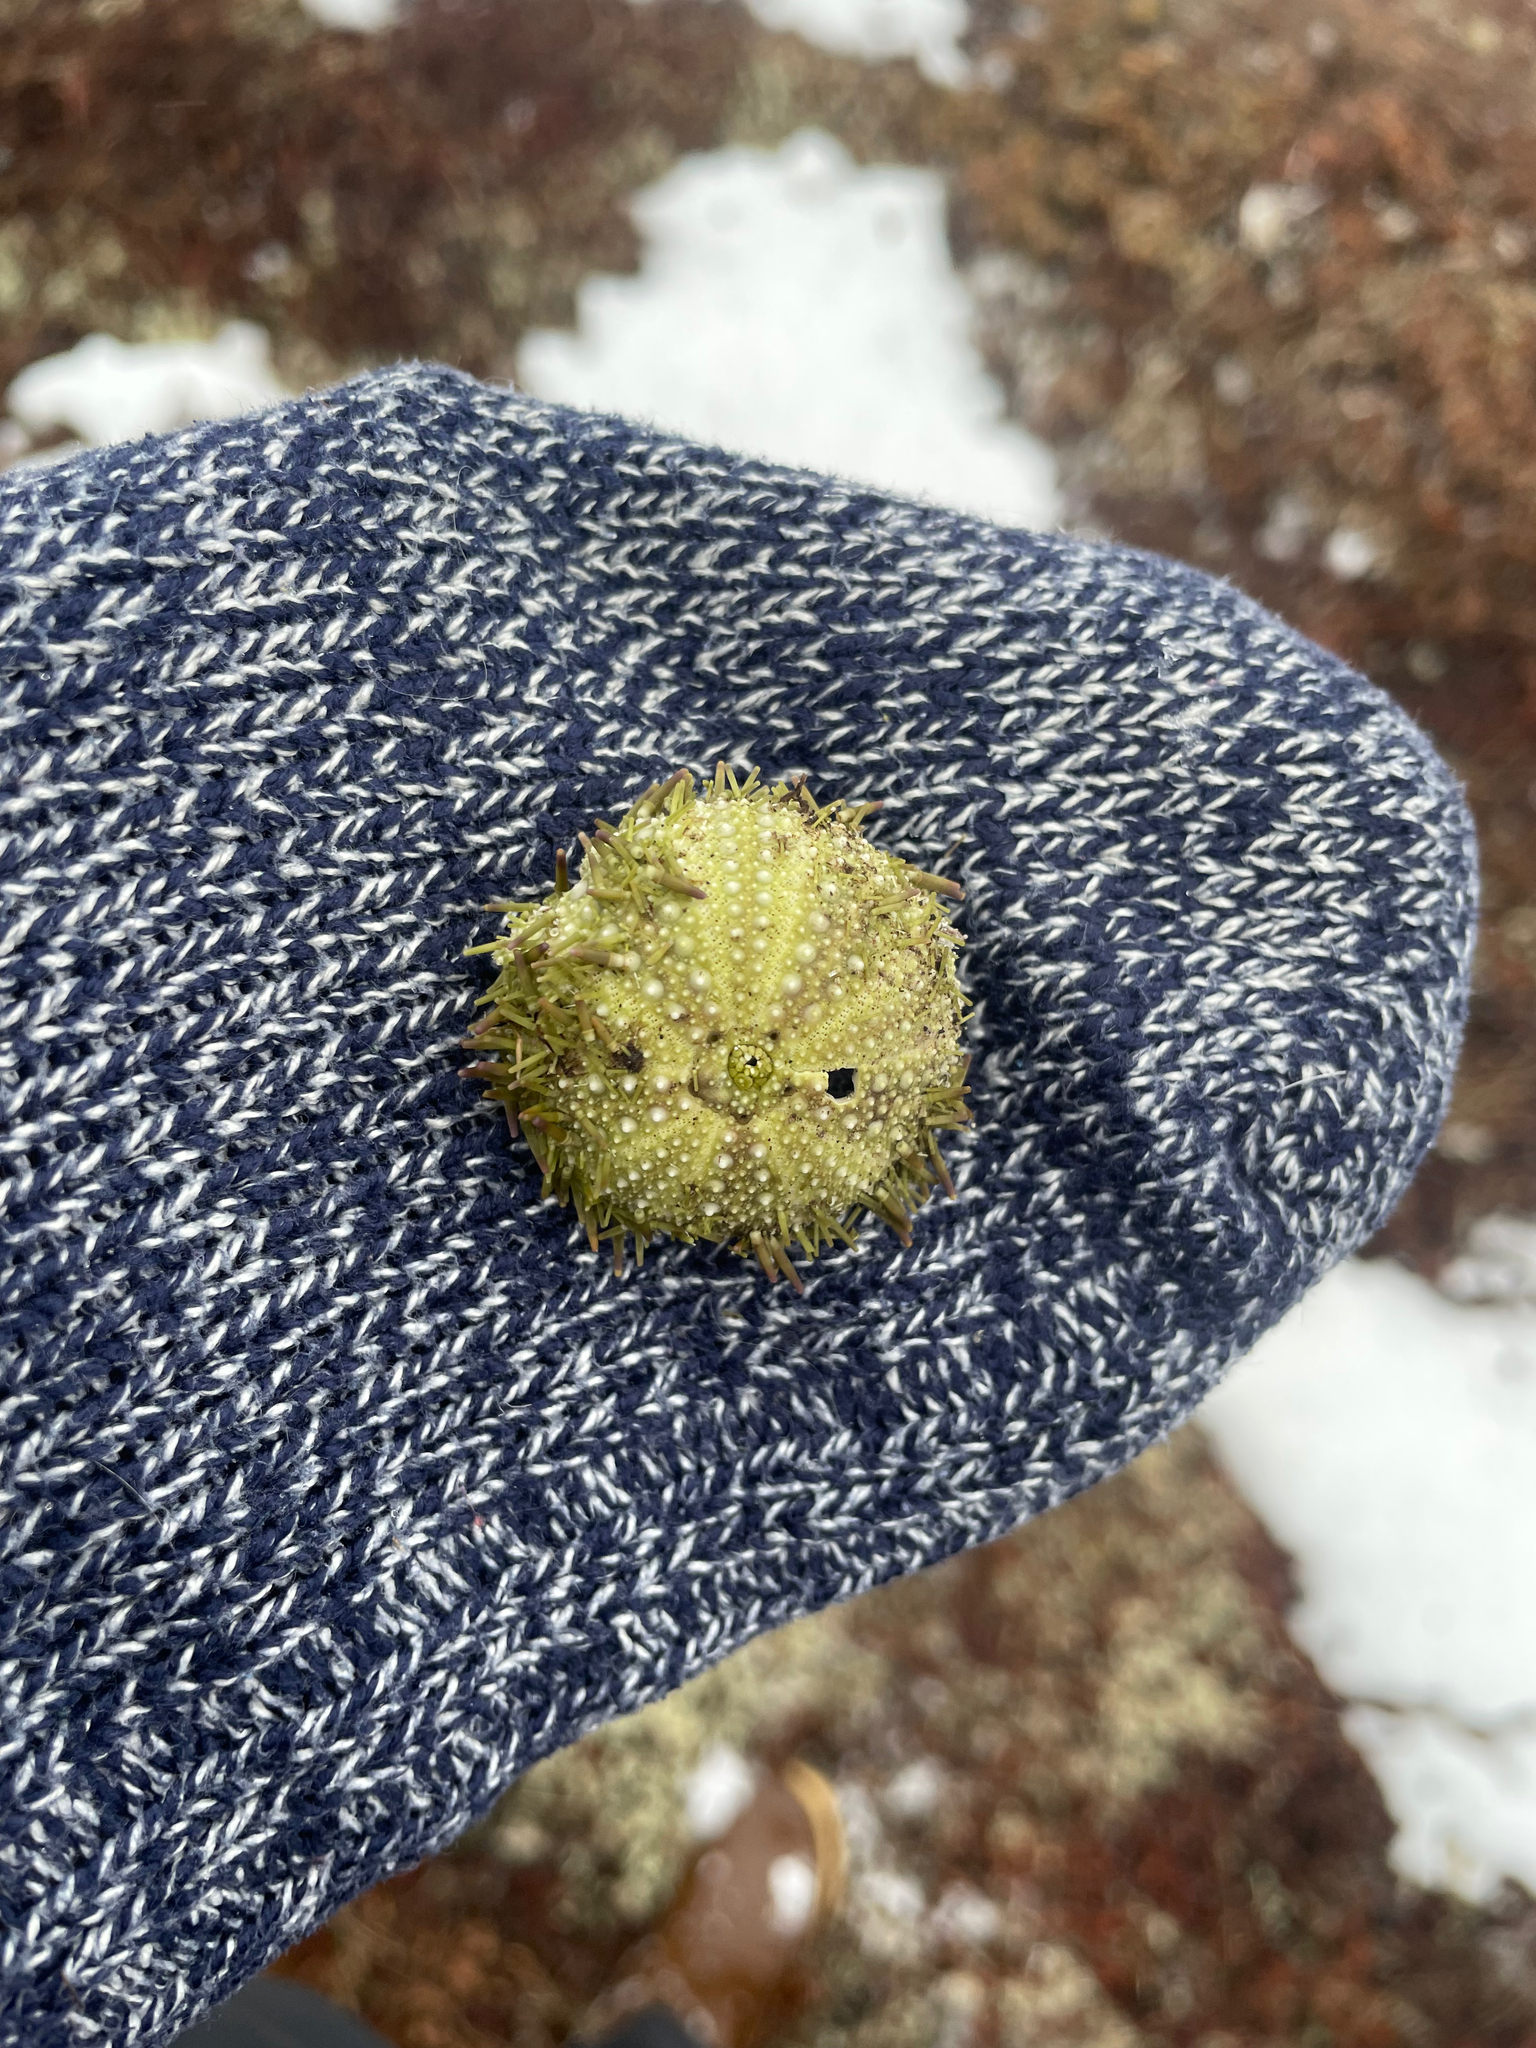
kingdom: Animalia
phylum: Echinodermata
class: Echinoidea
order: Camarodonta
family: Strongylocentrotidae
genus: Strongylocentrotus
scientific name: Strongylocentrotus droebachiensis
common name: Northern sea urchin
